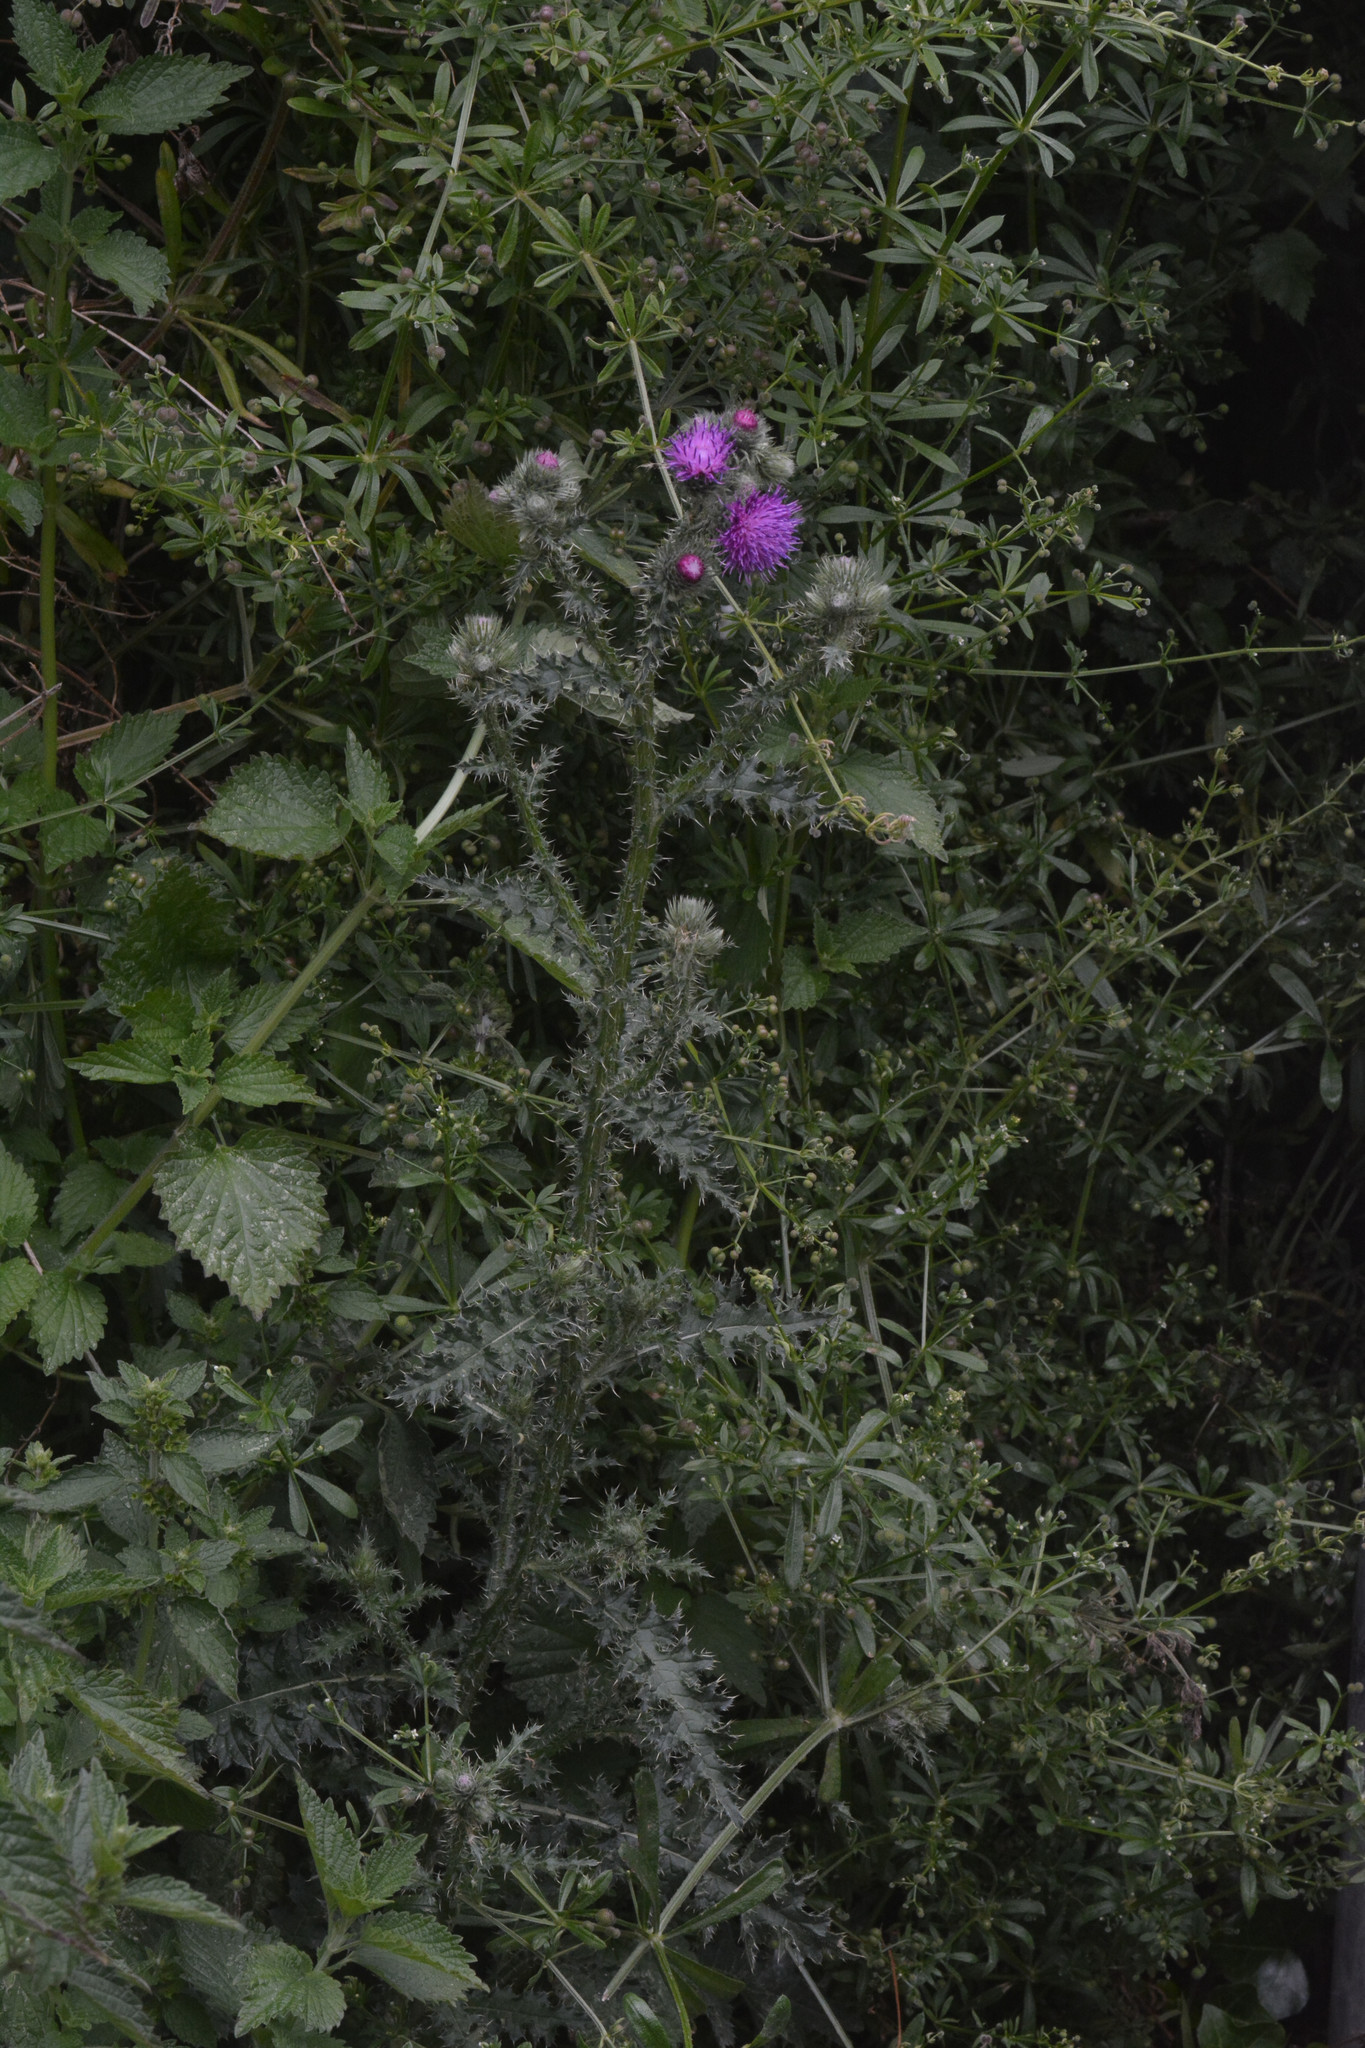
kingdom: Plantae
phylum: Tracheophyta
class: Magnoliopsida
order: Asterales
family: Asteraceae
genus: Carduus
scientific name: Carduus crispus
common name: Welted thistle
